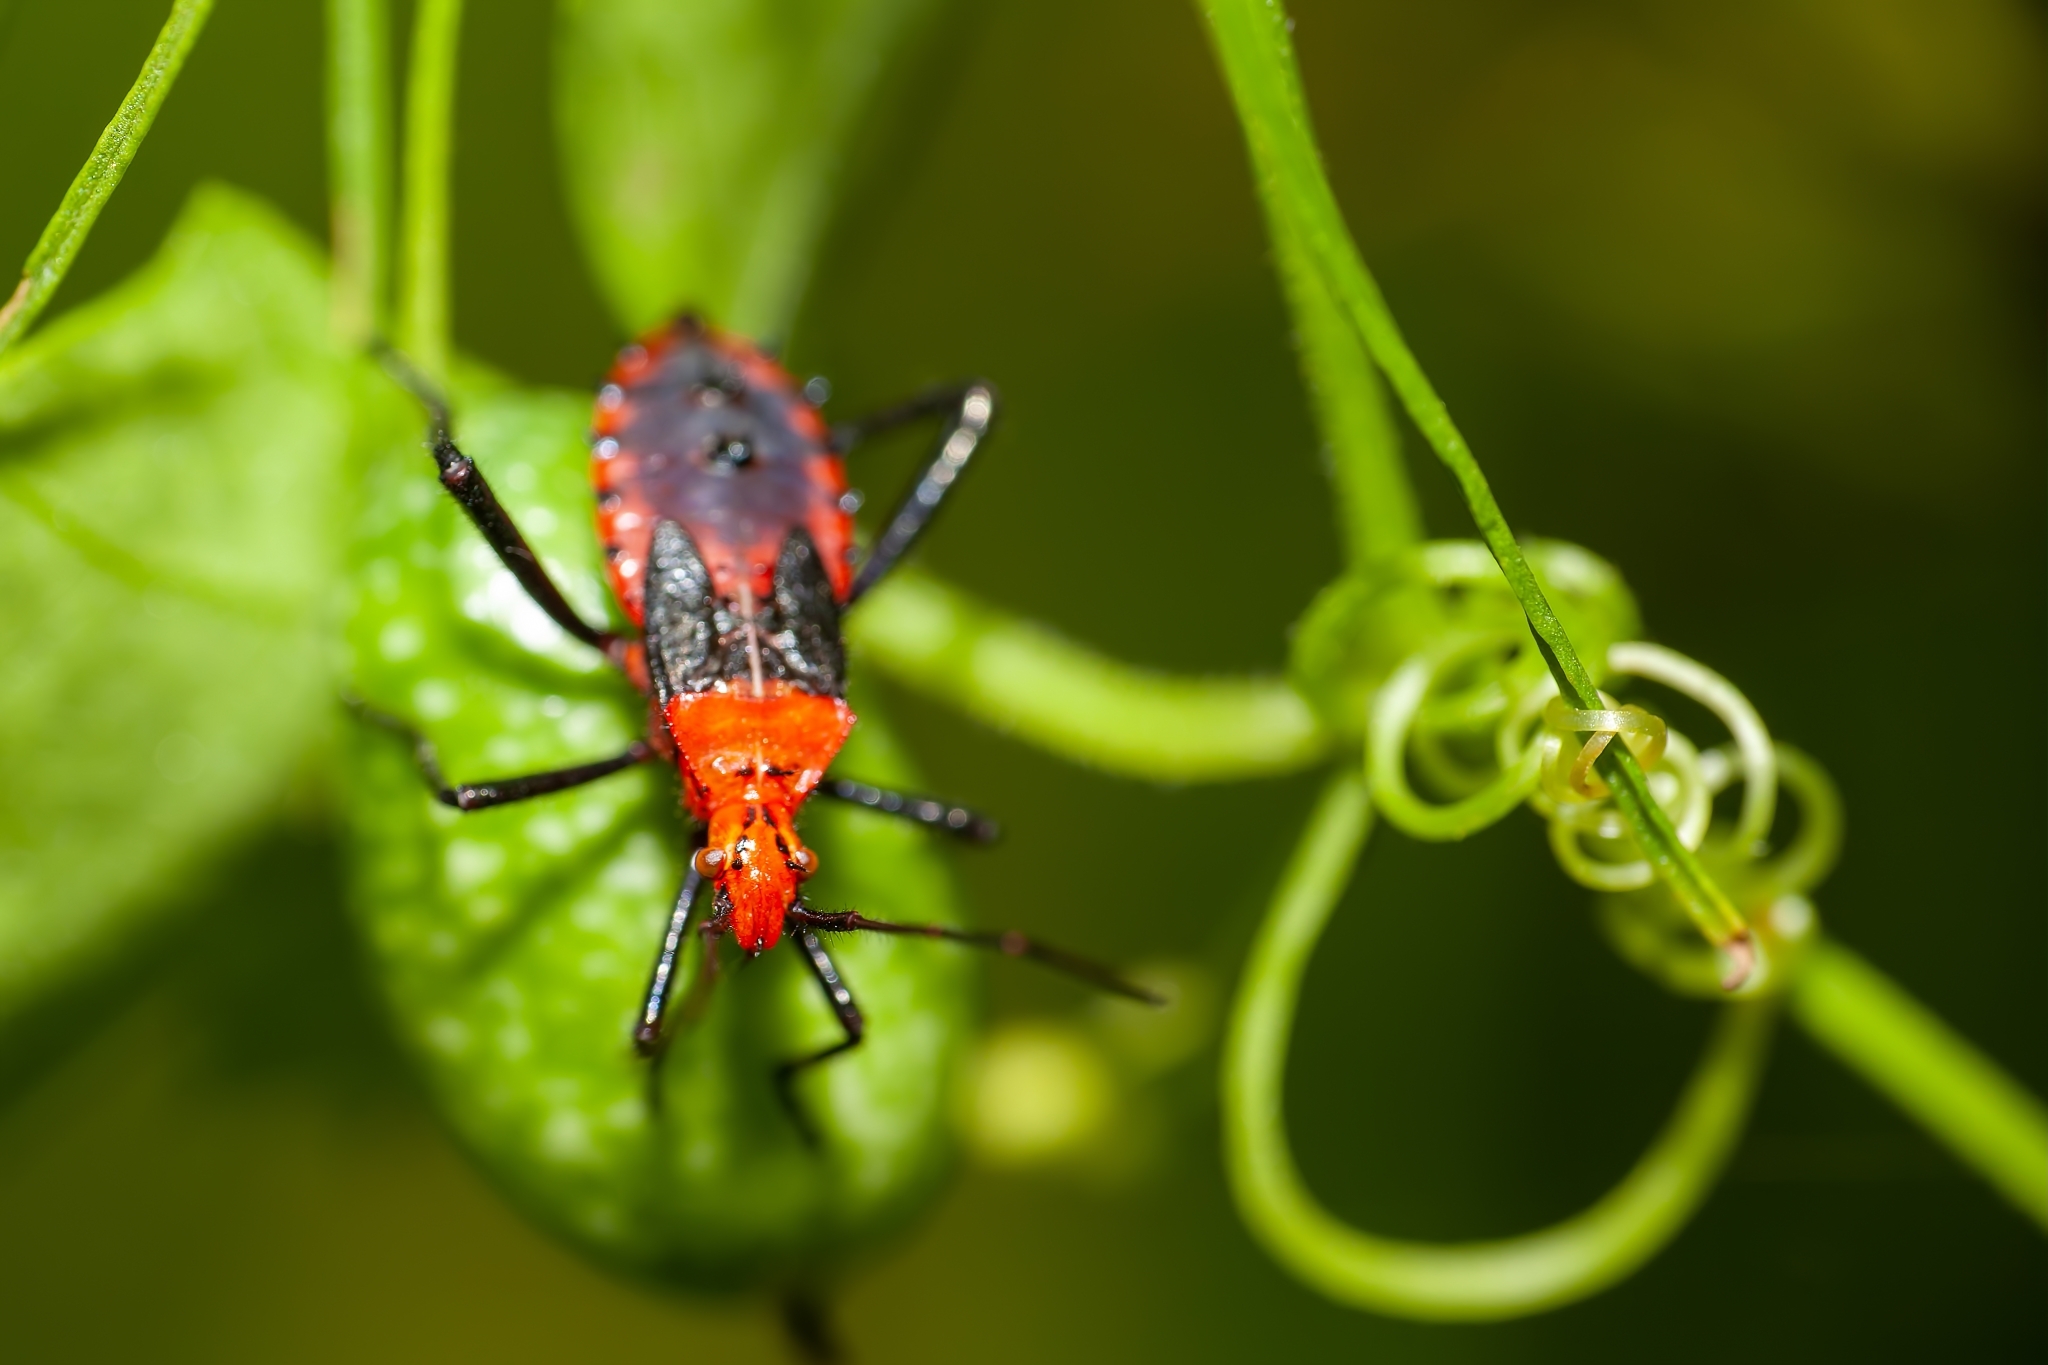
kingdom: Animalia
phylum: Arthropoda
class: Insecta
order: Hemiptera
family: Coreidae
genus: Phthiacnemia
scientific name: Phthiacnemia picta
